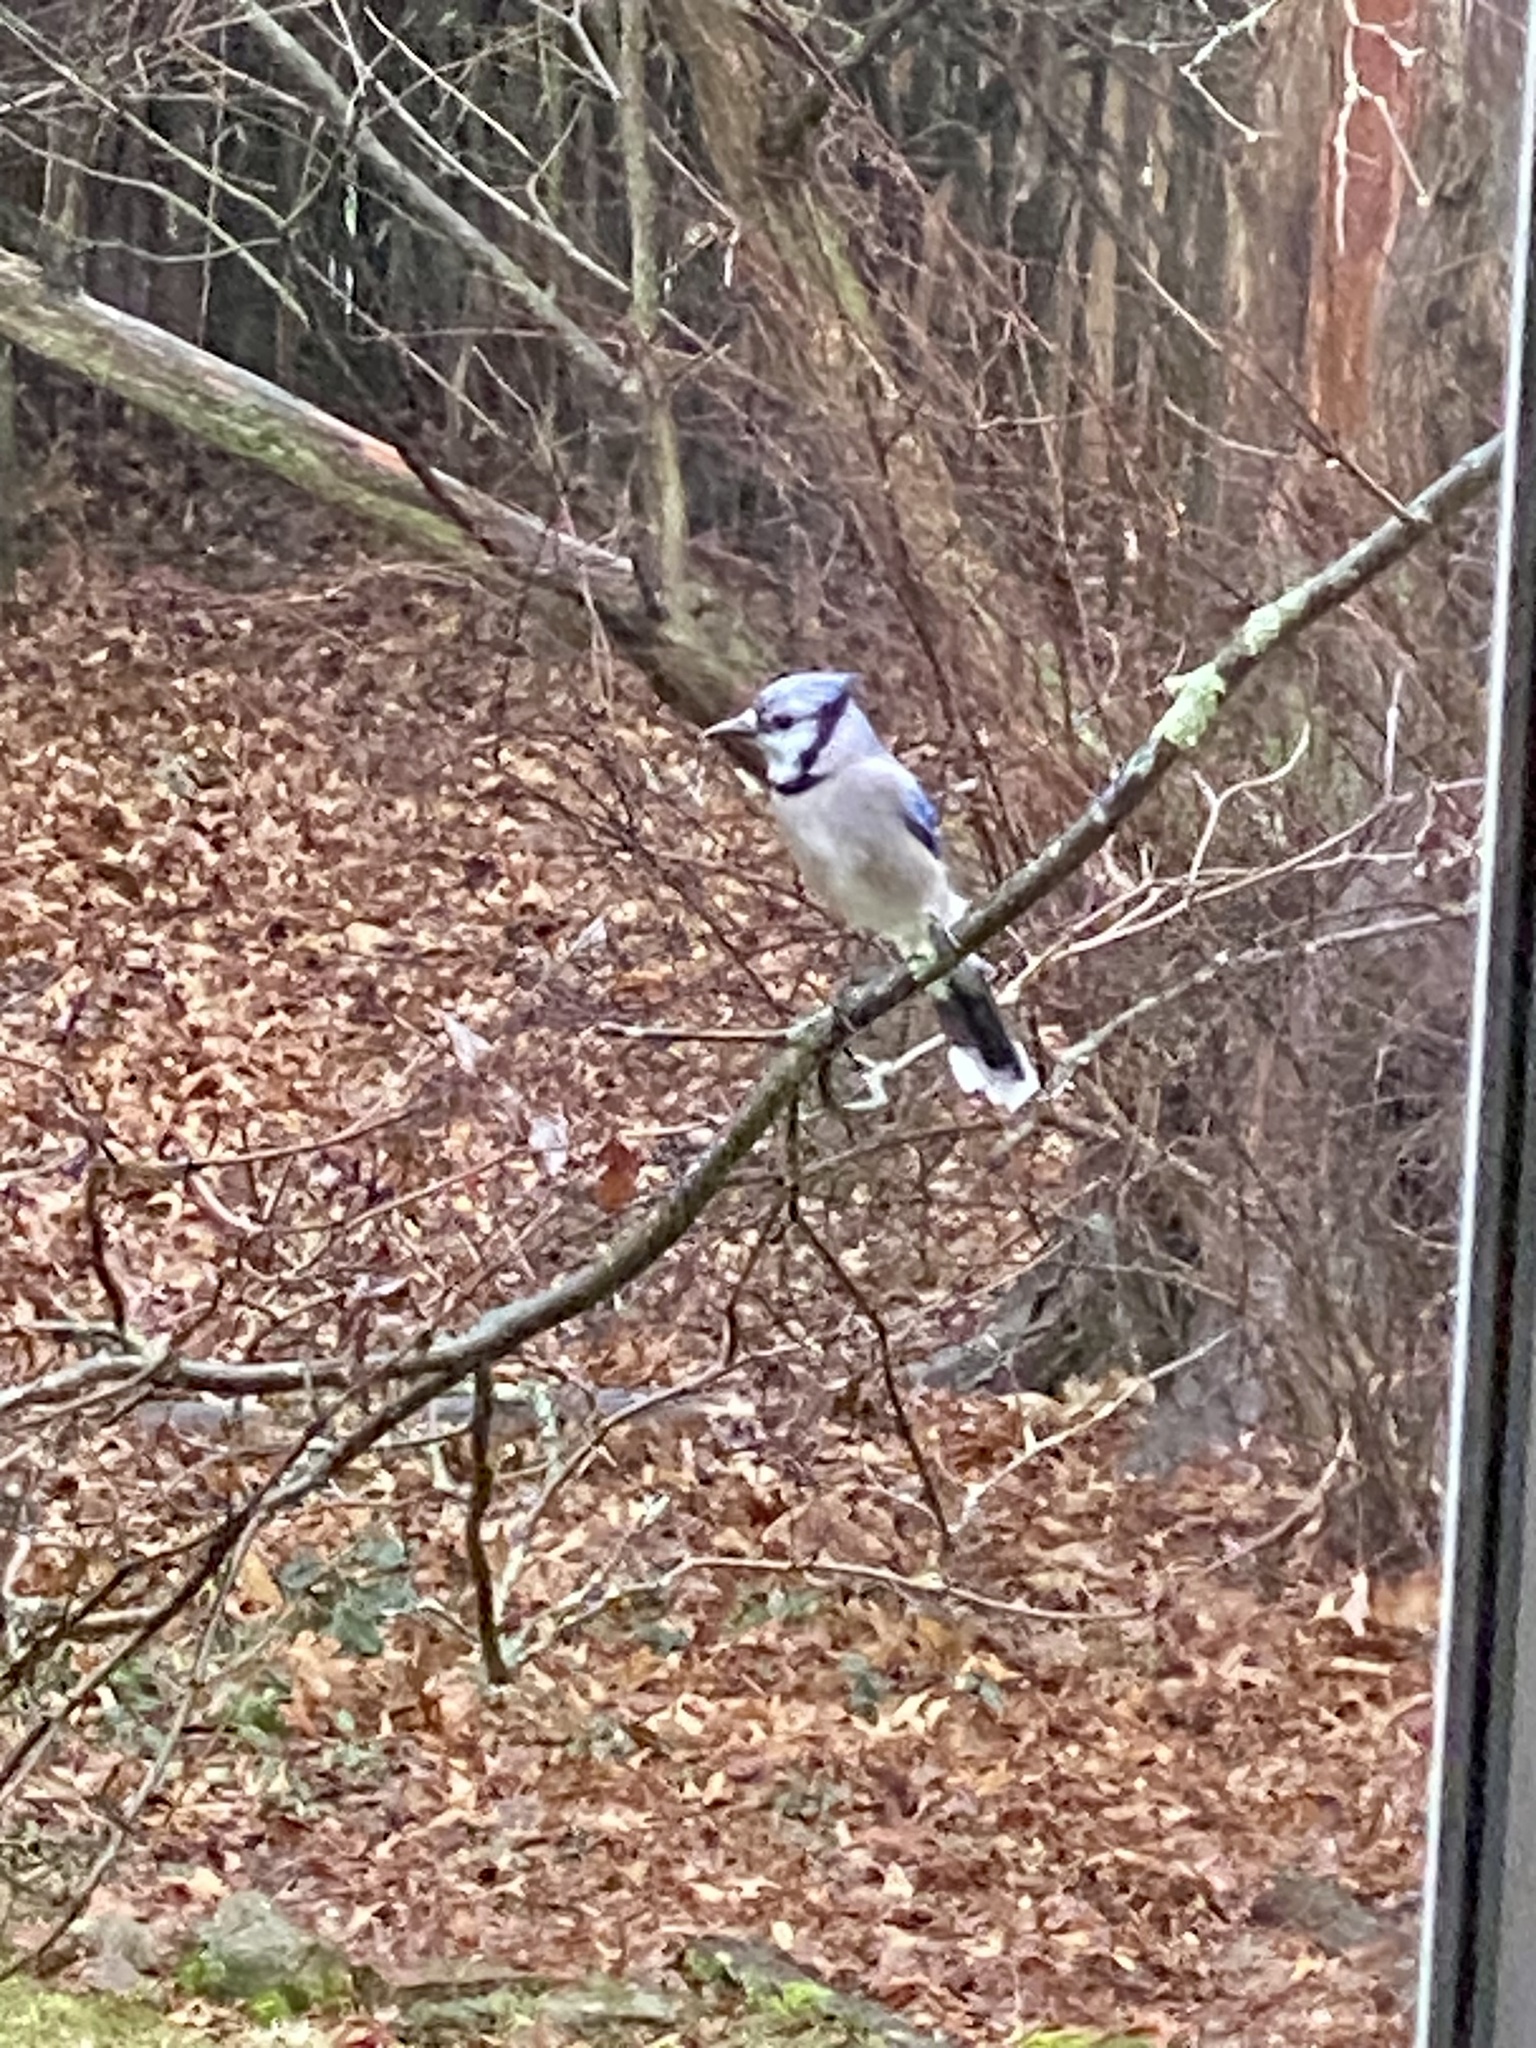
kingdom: Animalia
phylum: Chordata
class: Aves
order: Passeriformes
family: Corvidae
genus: Cyanocitta
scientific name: Cyanocitta cristata
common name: Blue jay
